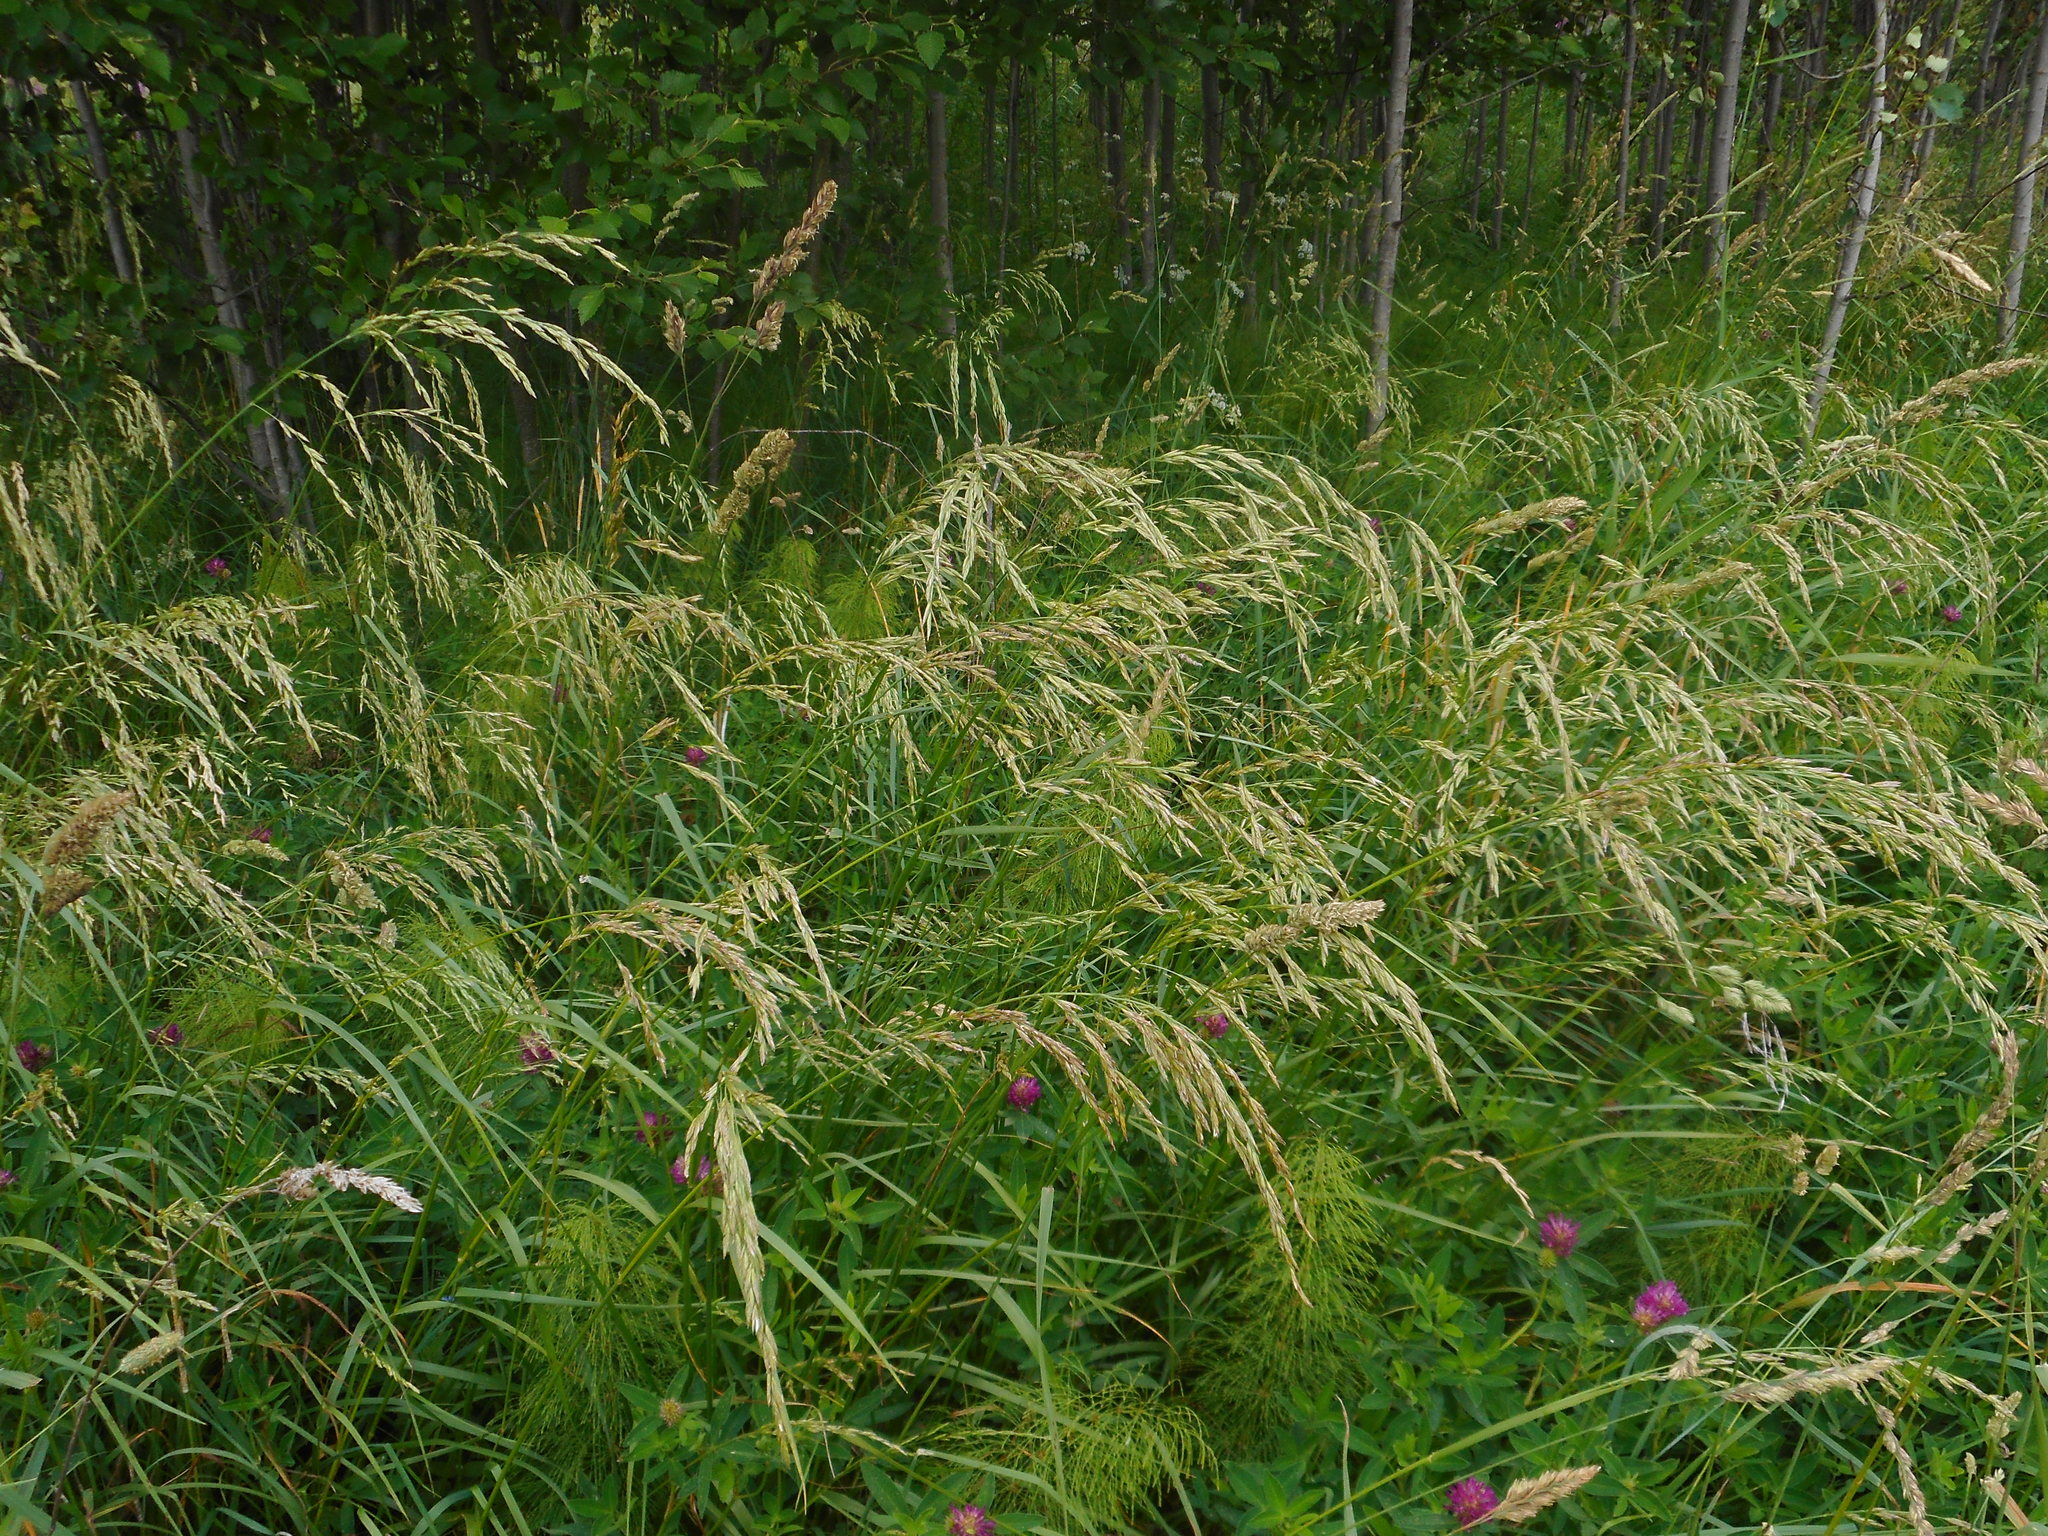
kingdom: Plantae
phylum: Tracheophyta
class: Liliopsida
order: Poales
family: Poaceae
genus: Lolium
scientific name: Lolium arundinaceum
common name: Reed fescue
